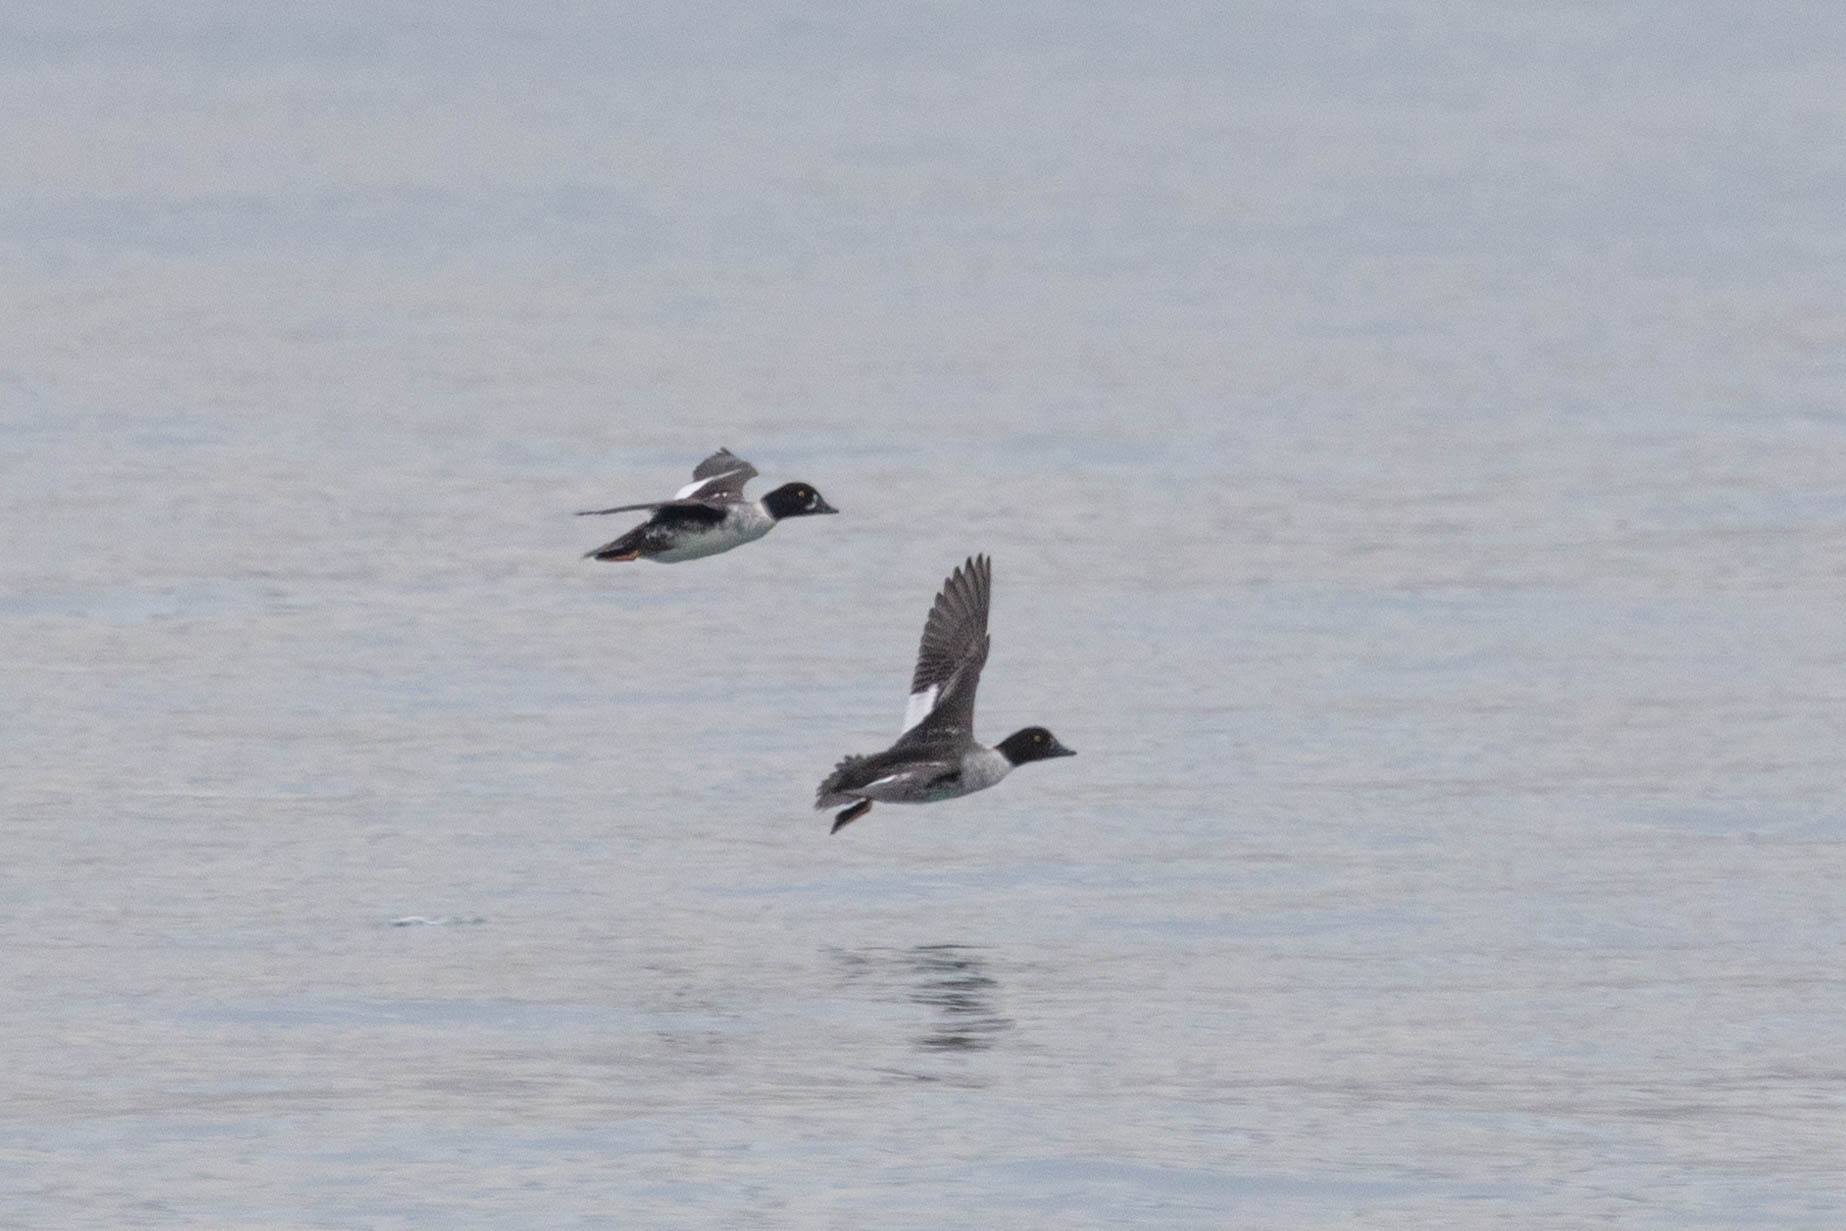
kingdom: Animalia
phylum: Chordata
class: Aves
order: Anseriformes
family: Anatidae
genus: Bucephala
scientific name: Bucephala islandica
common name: Barrow's goldeneye
